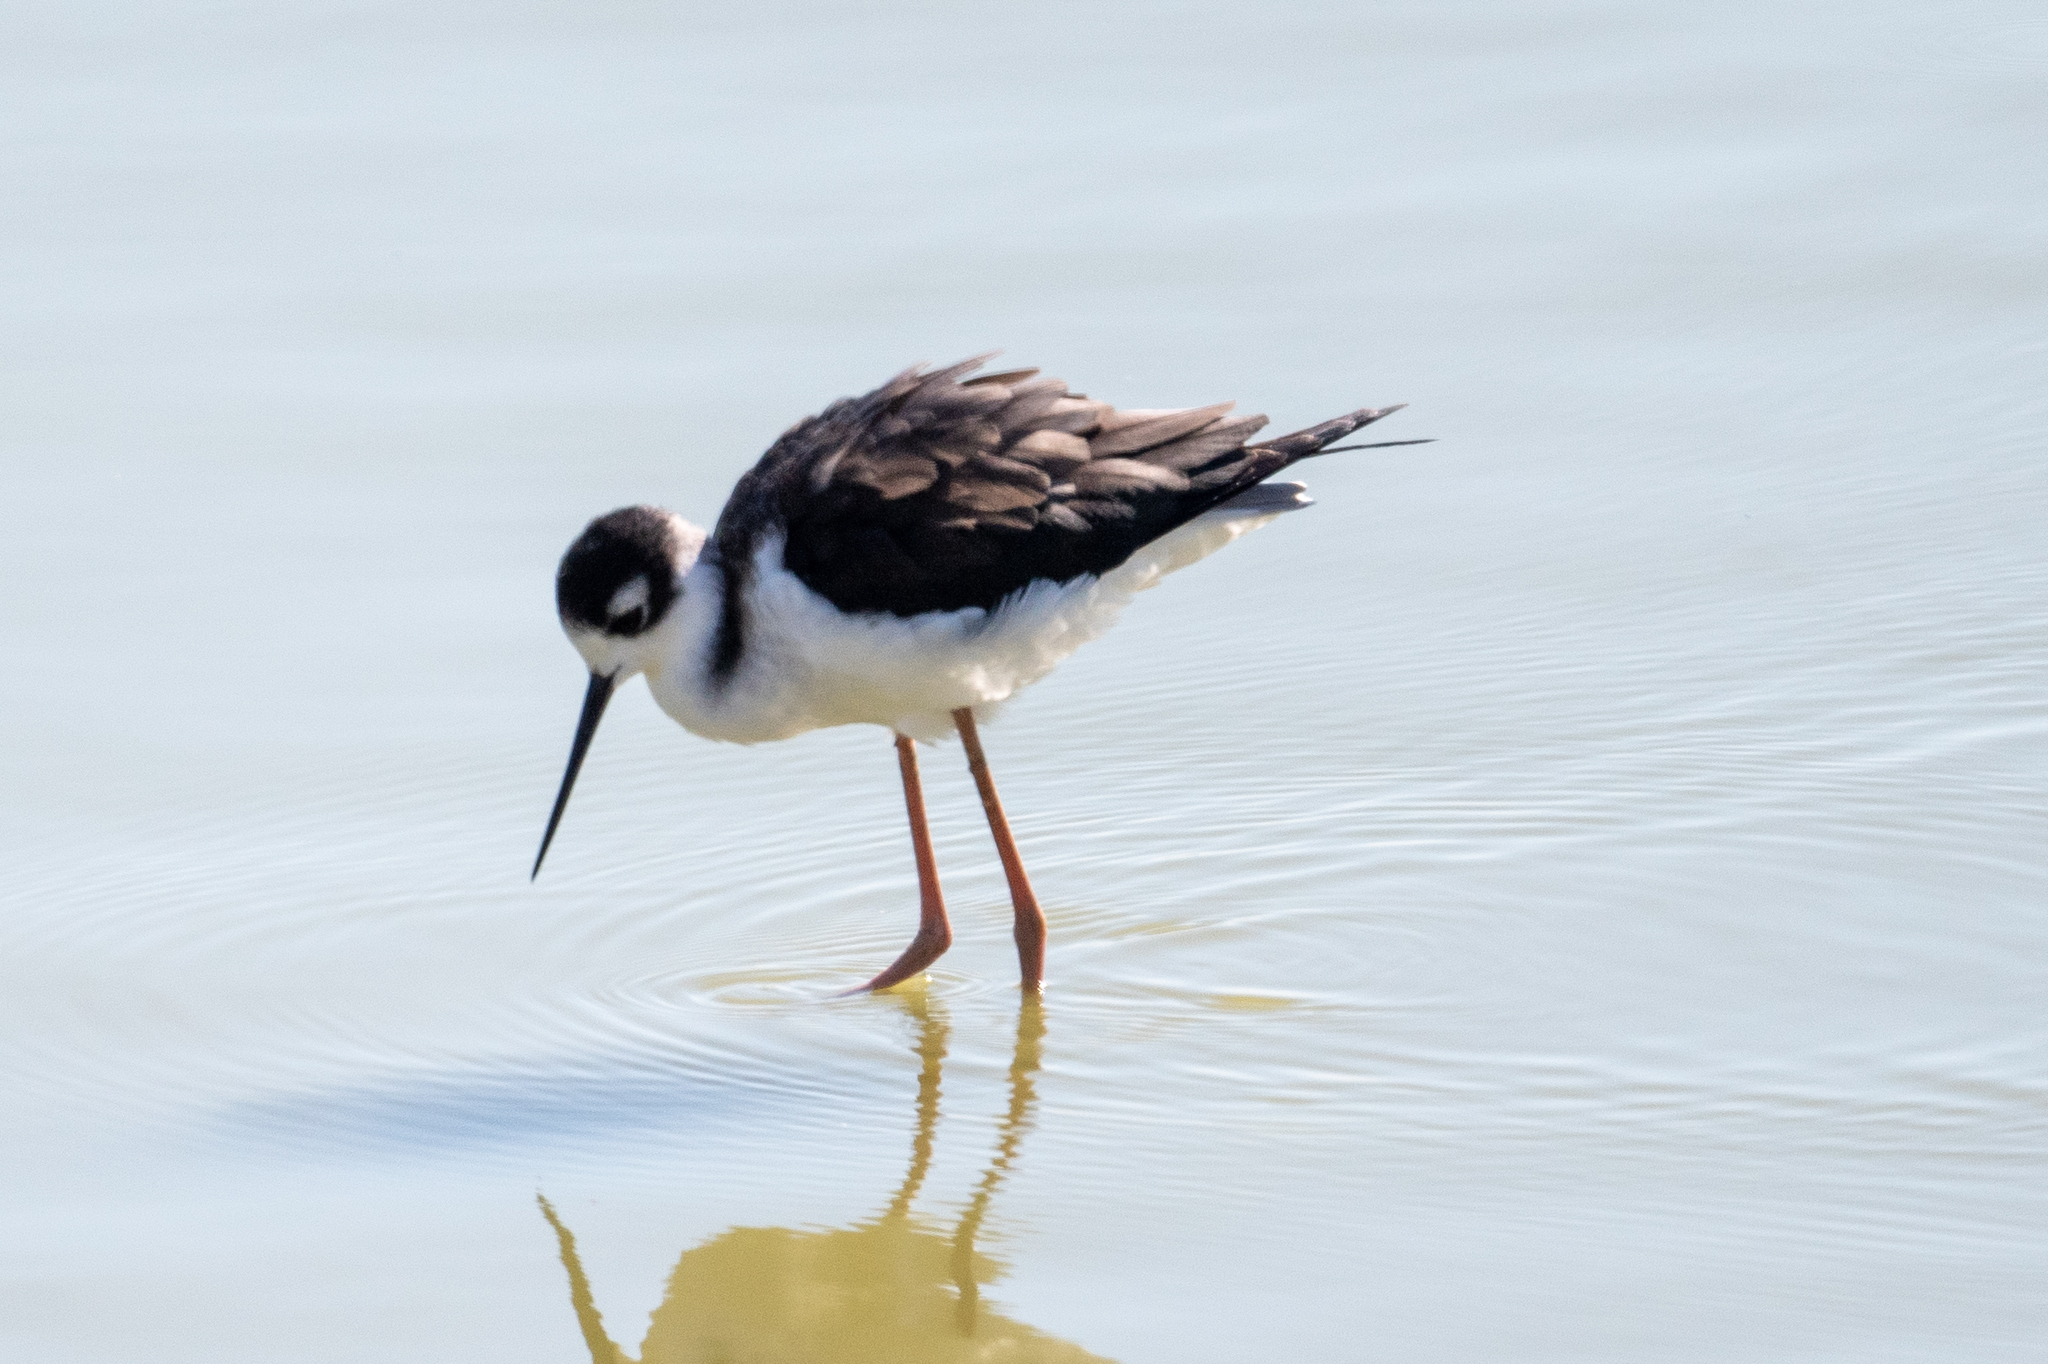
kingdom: Animalia
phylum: Chordata
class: Aves
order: Charadriiformes
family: Recurvirostridae
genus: Himantopus
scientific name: Himantopus mexicanus
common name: Black-necked stilt
